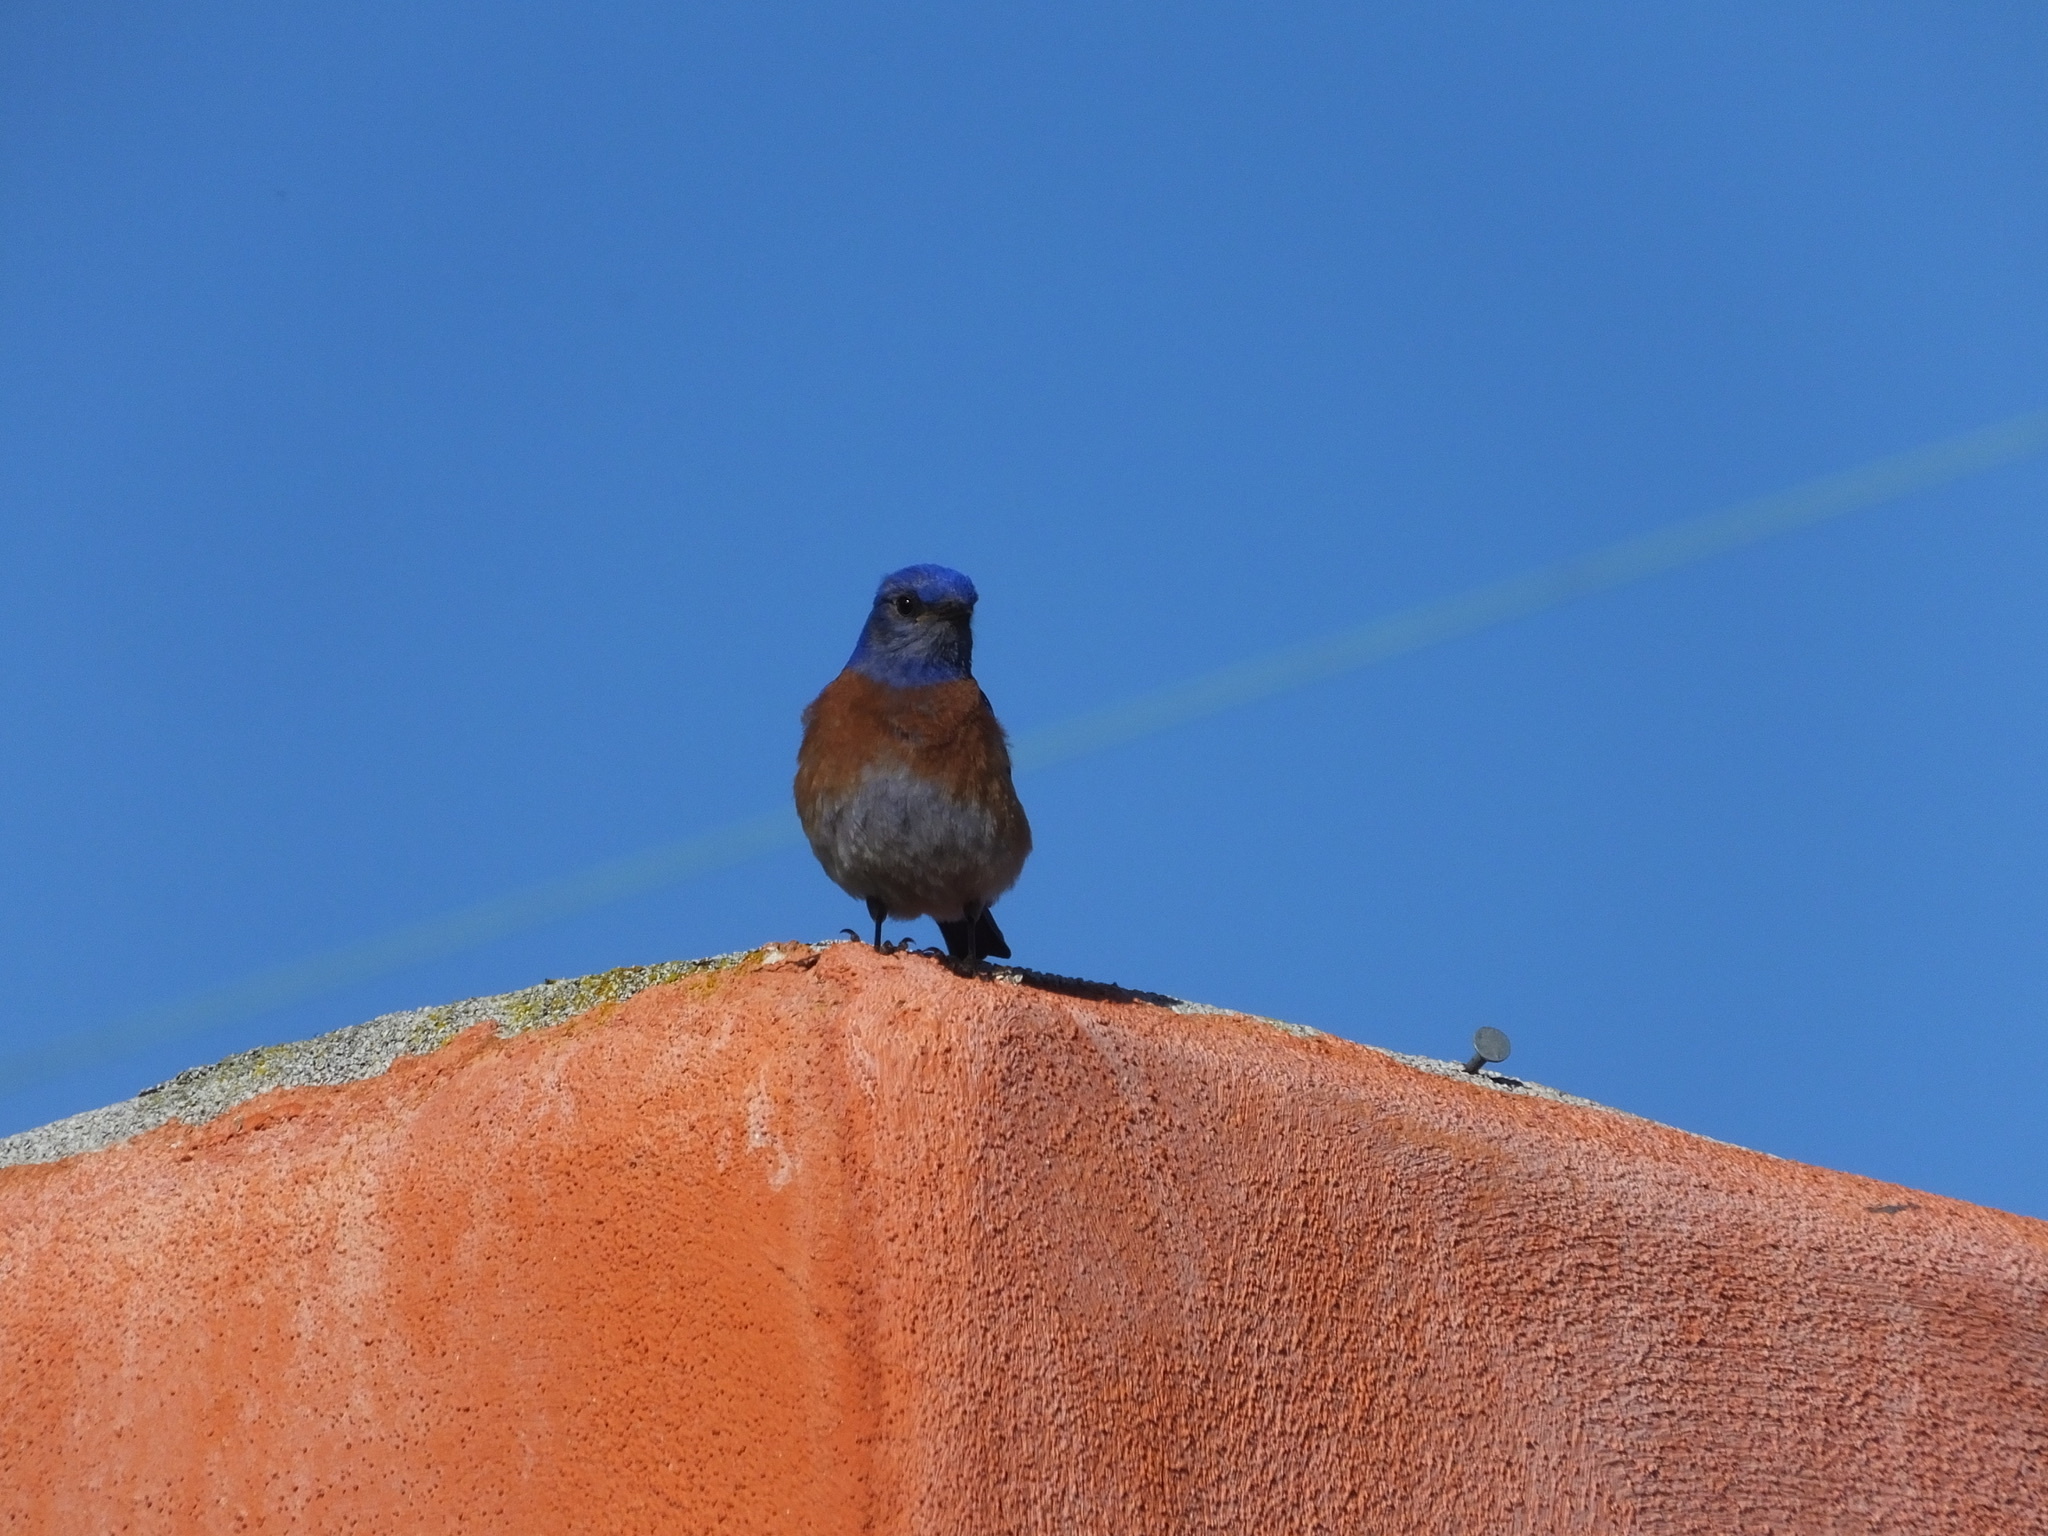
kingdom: Animalia
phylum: Chordata
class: Aves
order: Passeriformes
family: Turdidae
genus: Sialia
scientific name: Sialia mexicana
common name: Western bluebird
